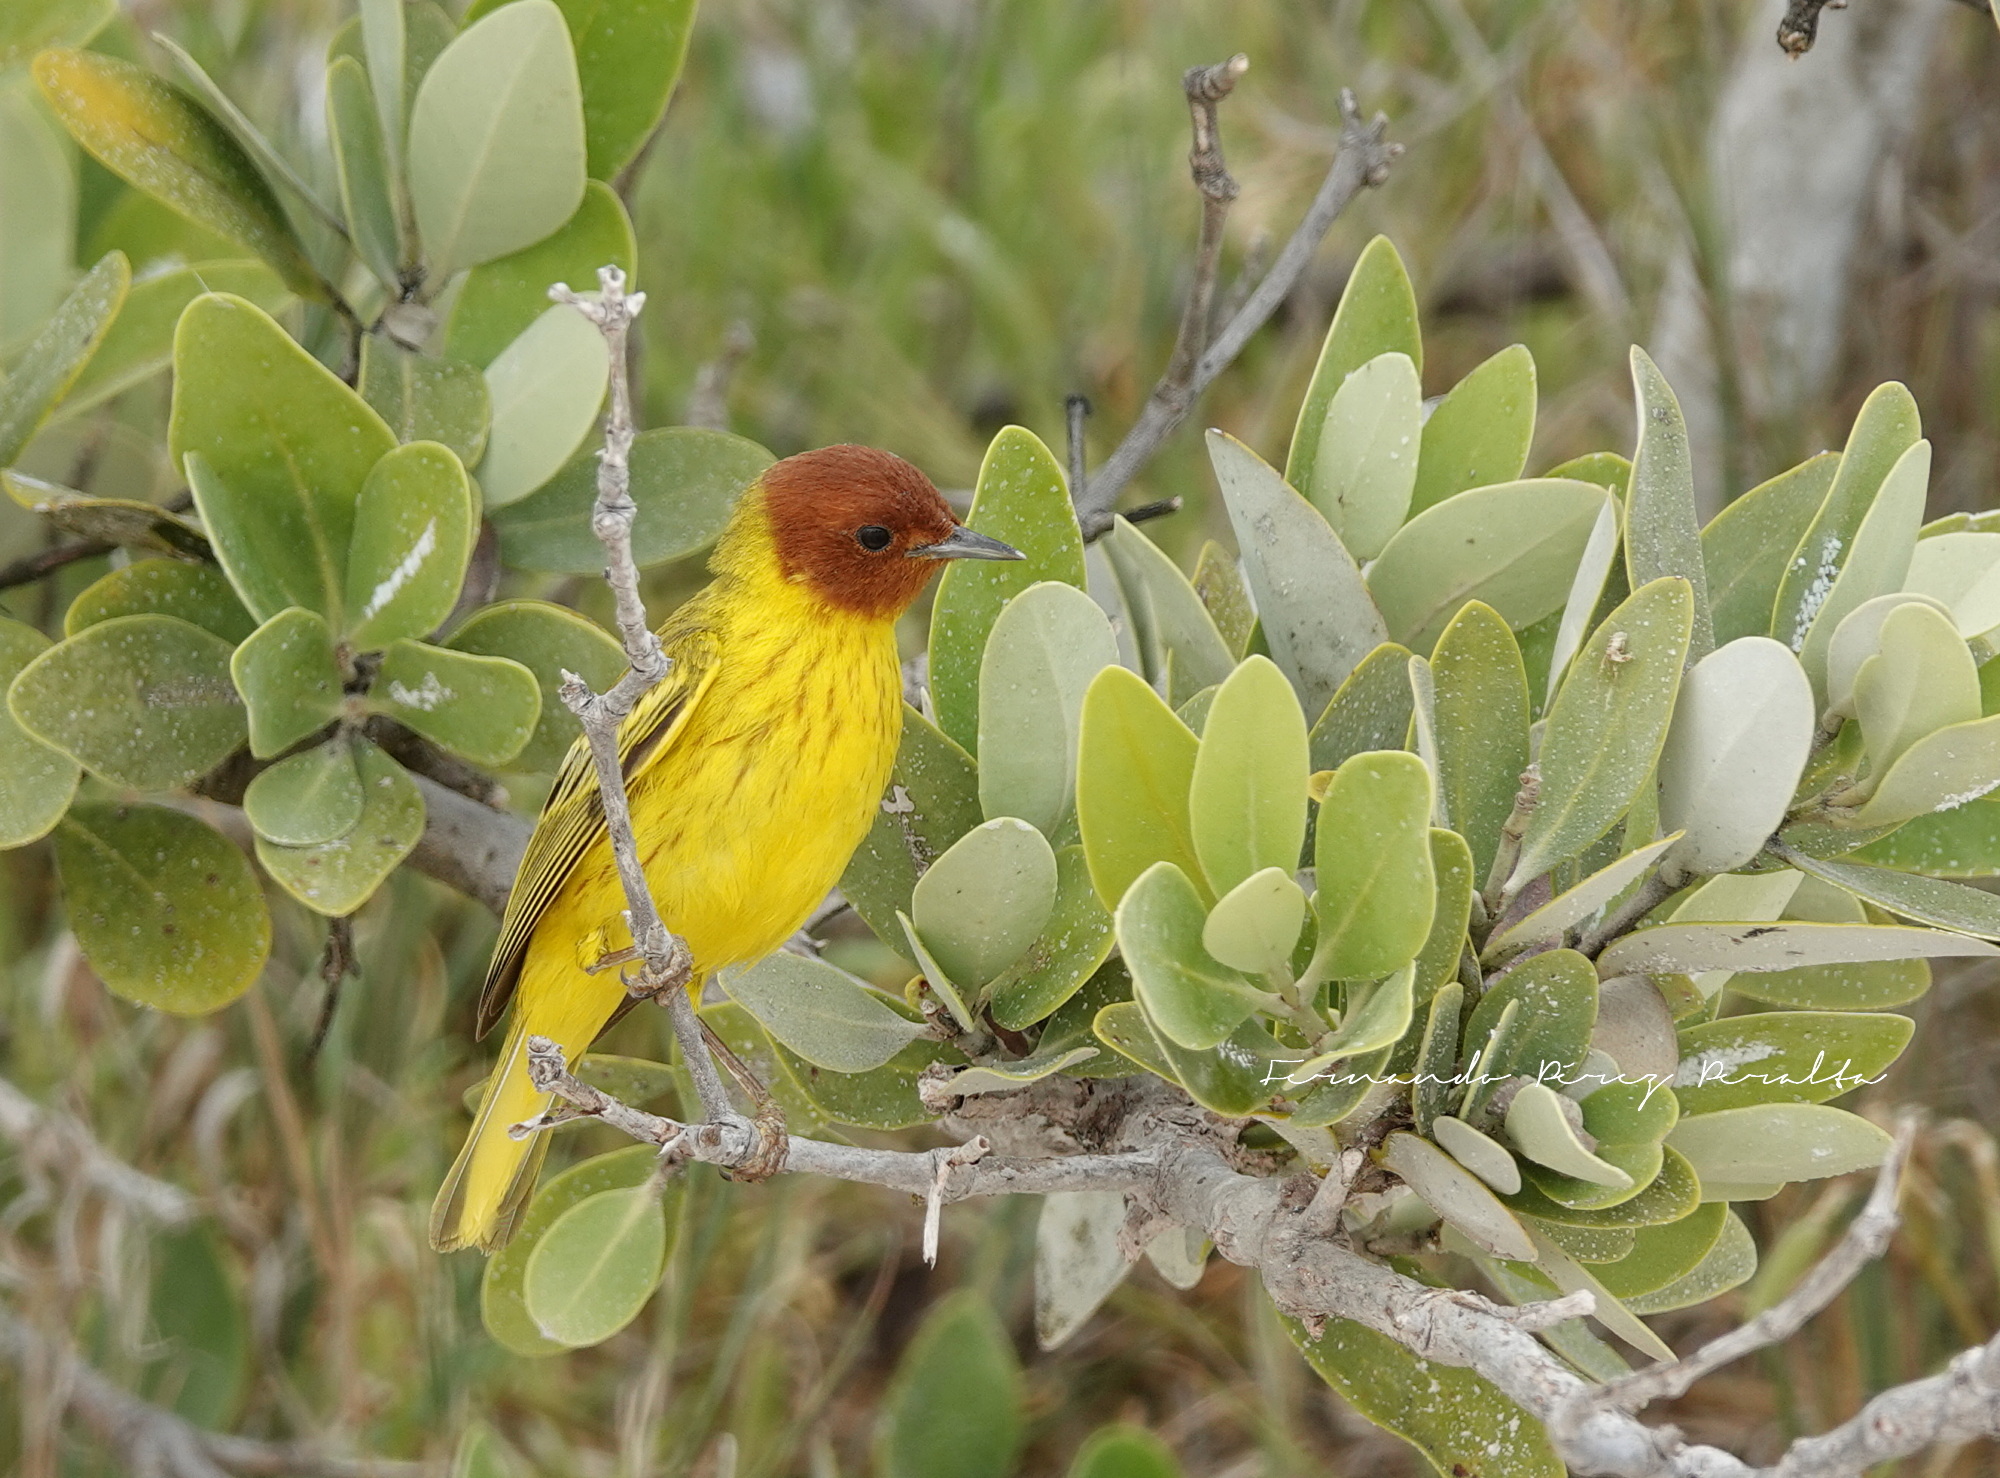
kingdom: Animalia
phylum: Chordata
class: Aves
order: Passeriformes
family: Parulidae
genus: Setophaga
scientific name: Setophaga petechia
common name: Yellow warbler
